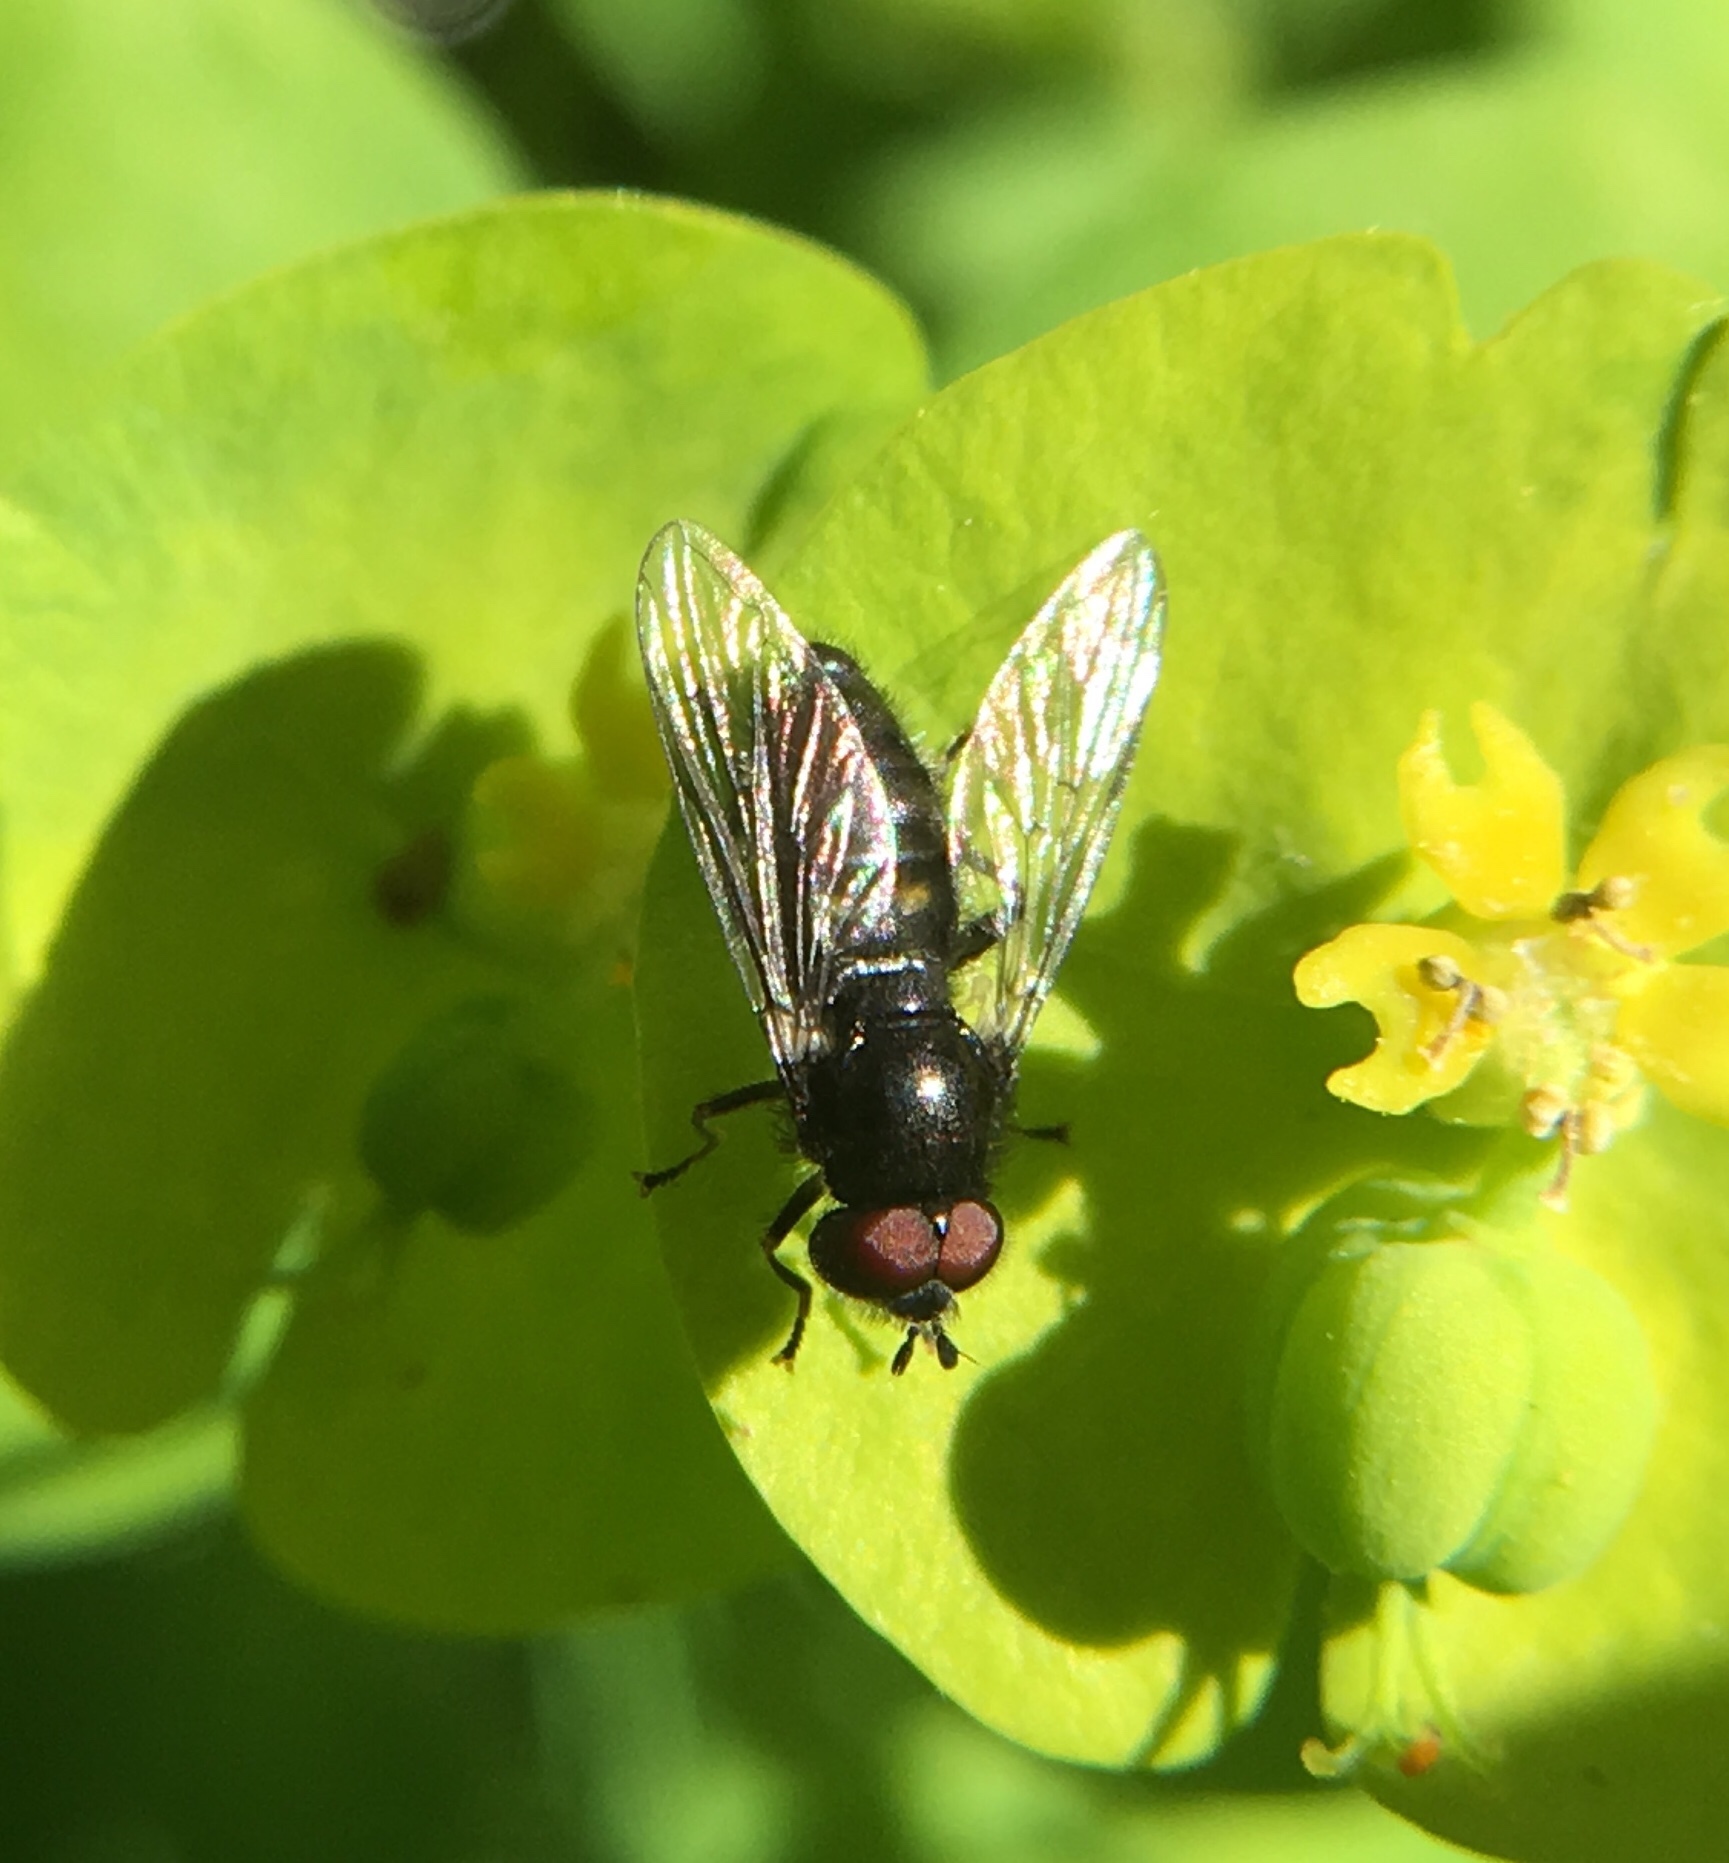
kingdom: Animalia
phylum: Arthropoda
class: Insecta
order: Diptera
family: Syrphidae
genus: Pipiza
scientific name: Pipiza
